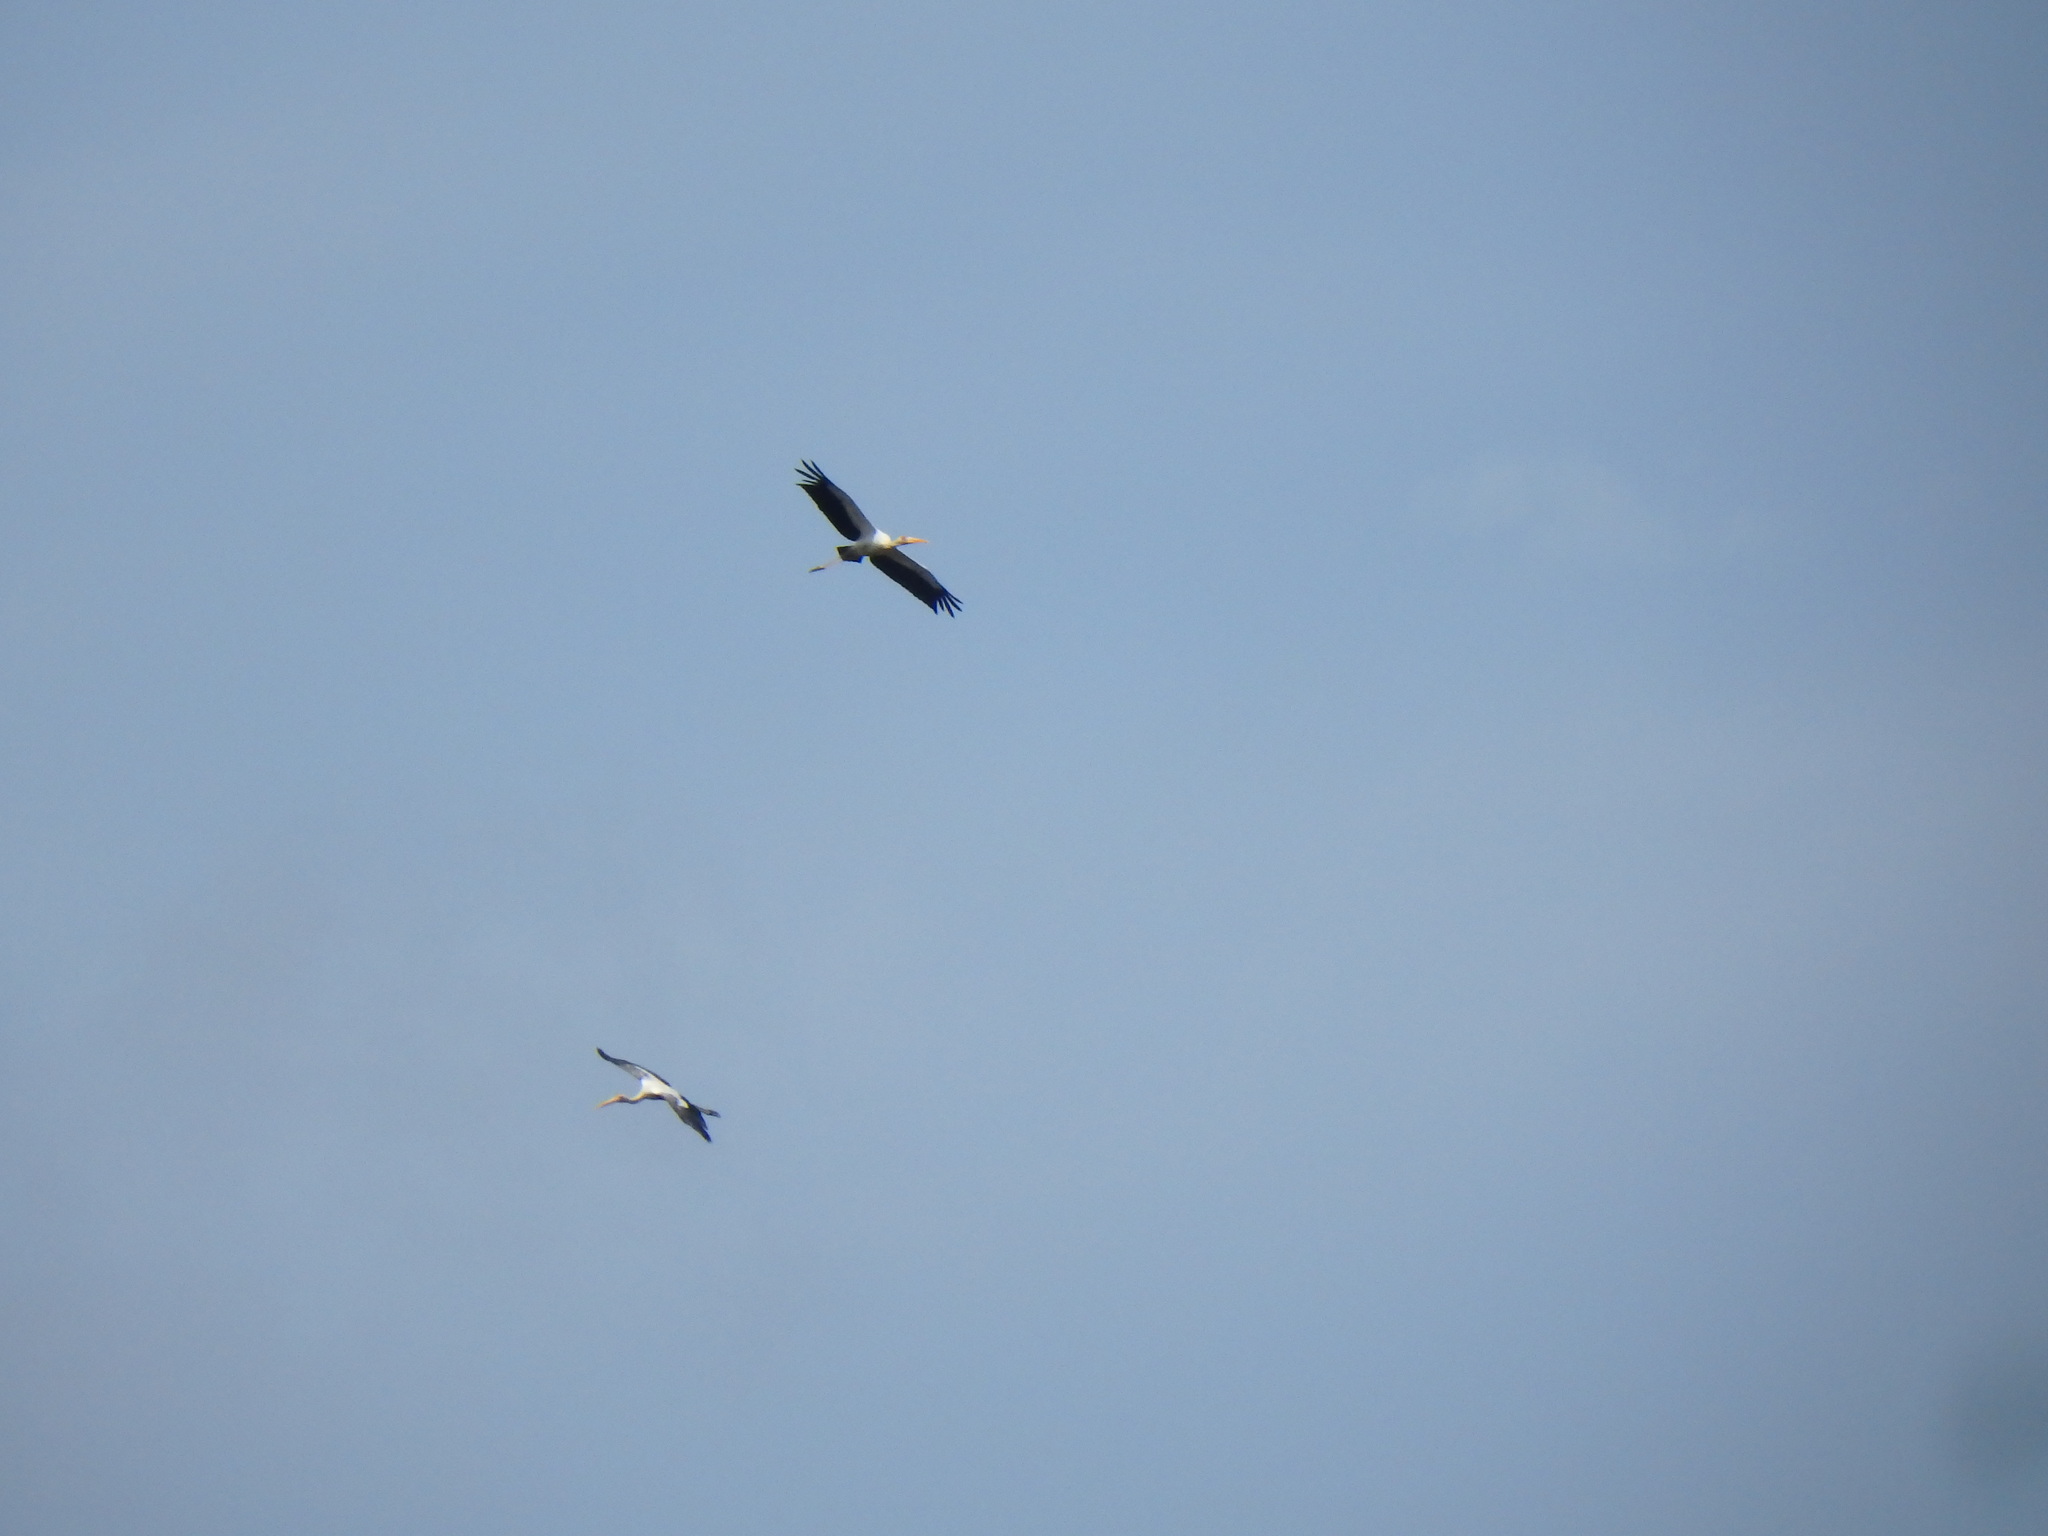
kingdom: Animalia
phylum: Chordata
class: Aves
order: Ciconiiformes
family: Ciconiidae
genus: Mycteria
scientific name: Mycteria cinerea
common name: Milky stork
